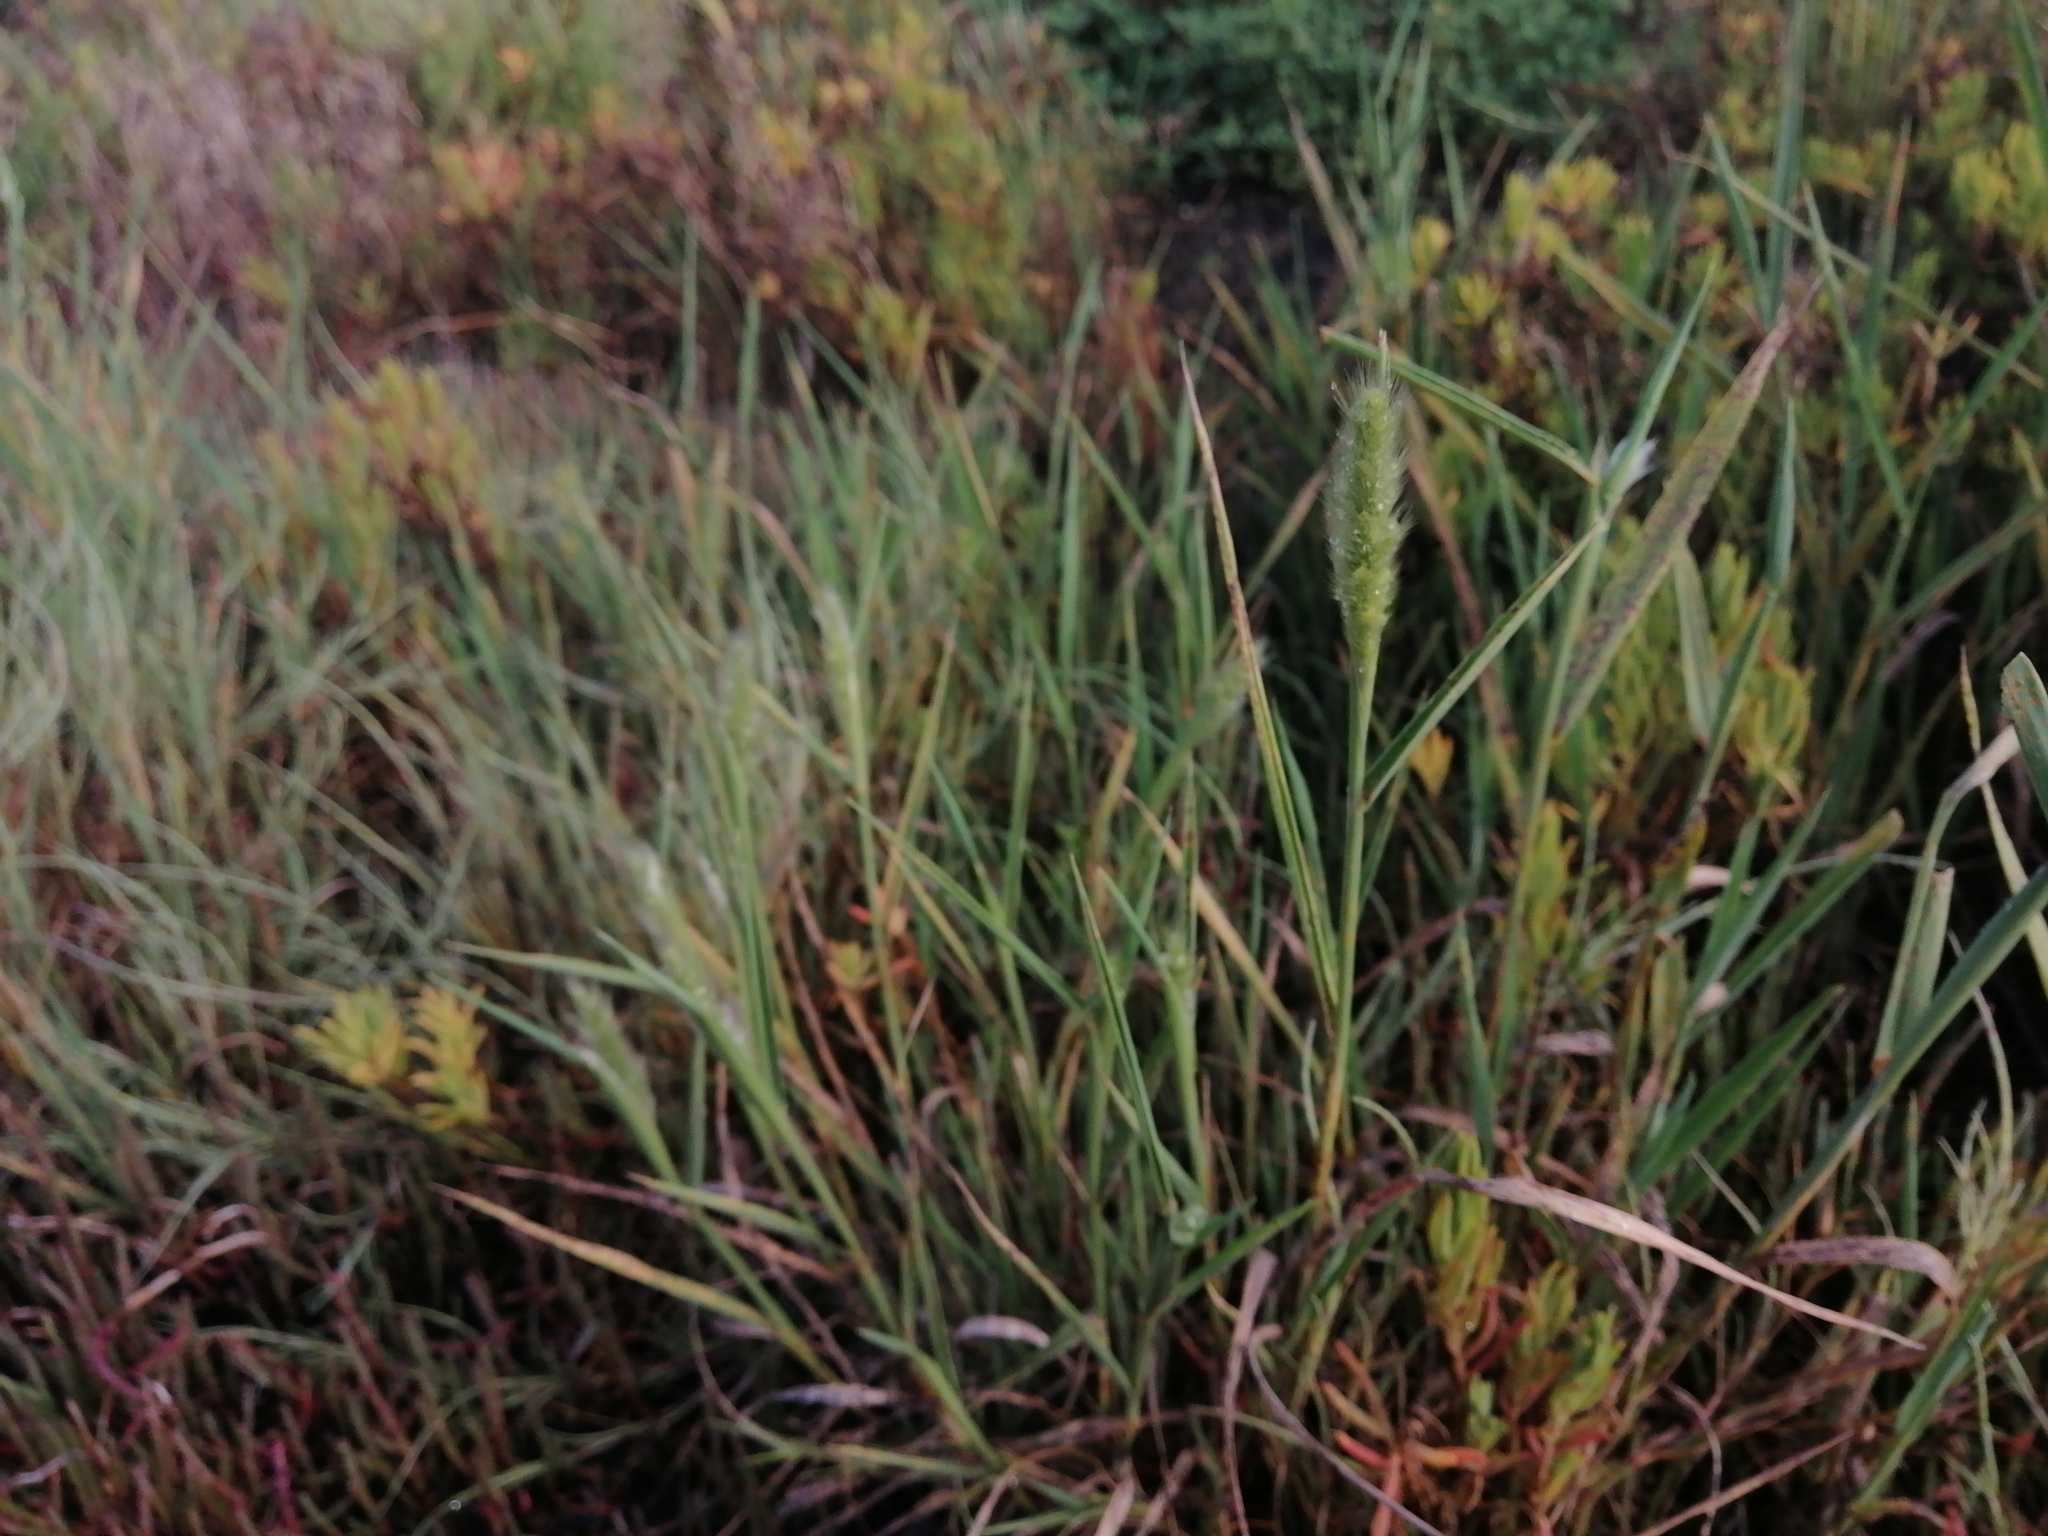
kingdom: Plantae
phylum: Tracheophyta
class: Liliopsida
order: Poales
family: Poaceae
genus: Polypogon
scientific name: Polypogon monspeliensis
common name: Annual rabbitsfoot grass
